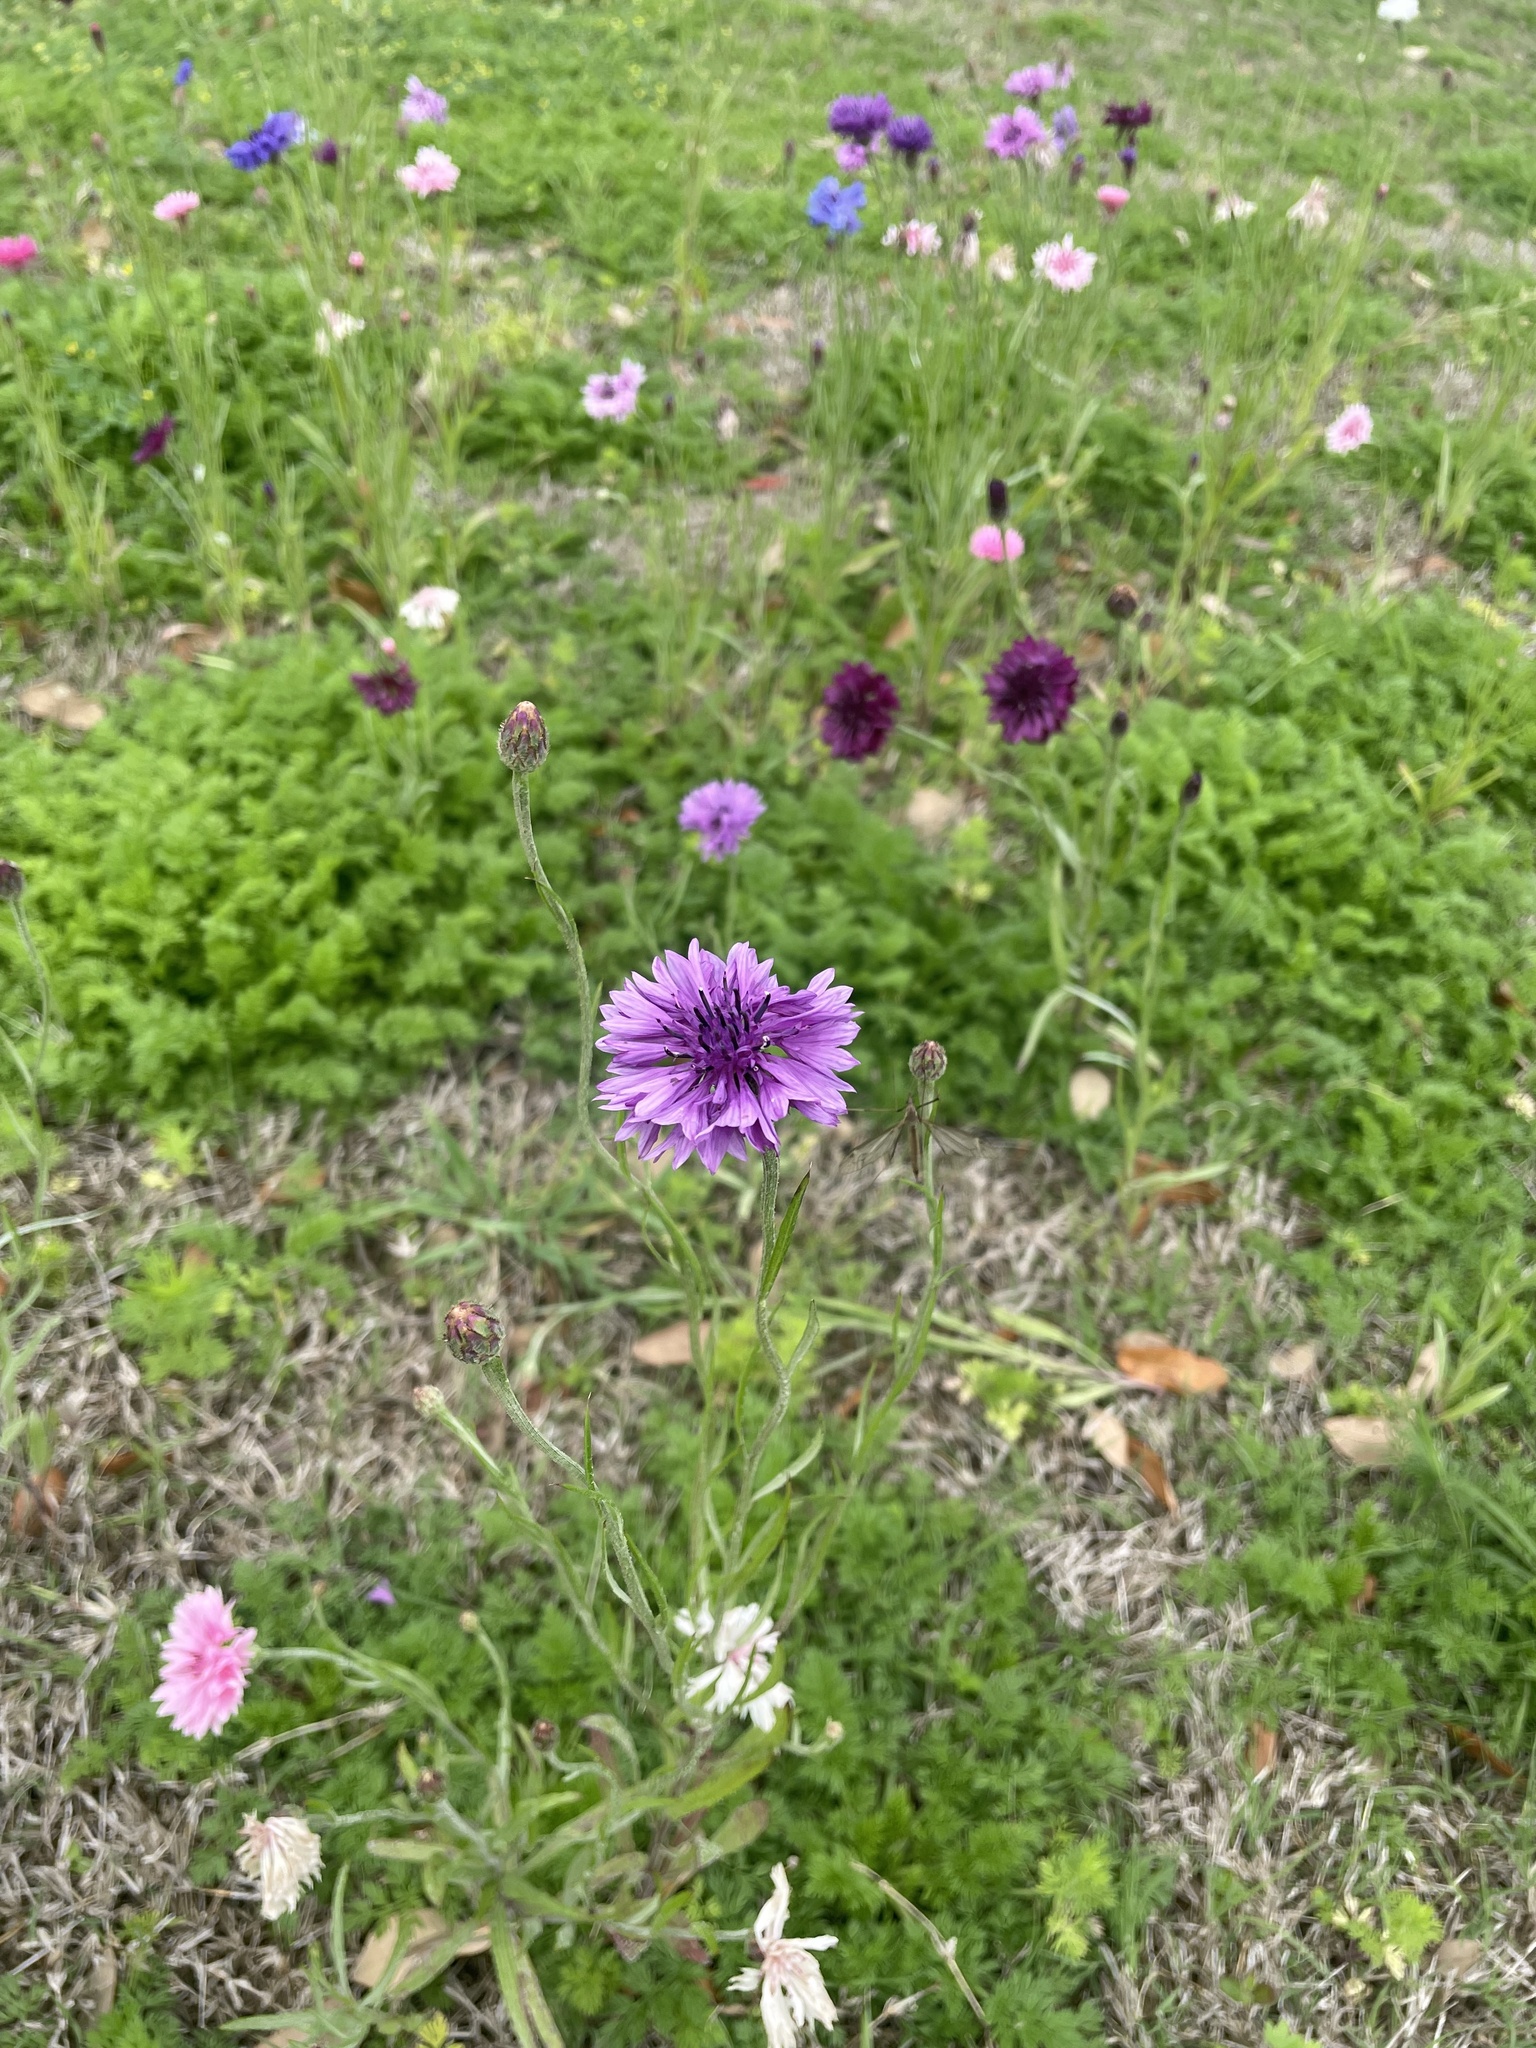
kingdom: Plantae
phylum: Tracheophyta
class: Magnoliopsida
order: Asterales
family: Asteraceae
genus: Centaurea
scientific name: Centaurea cyanus
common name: Cornflower
